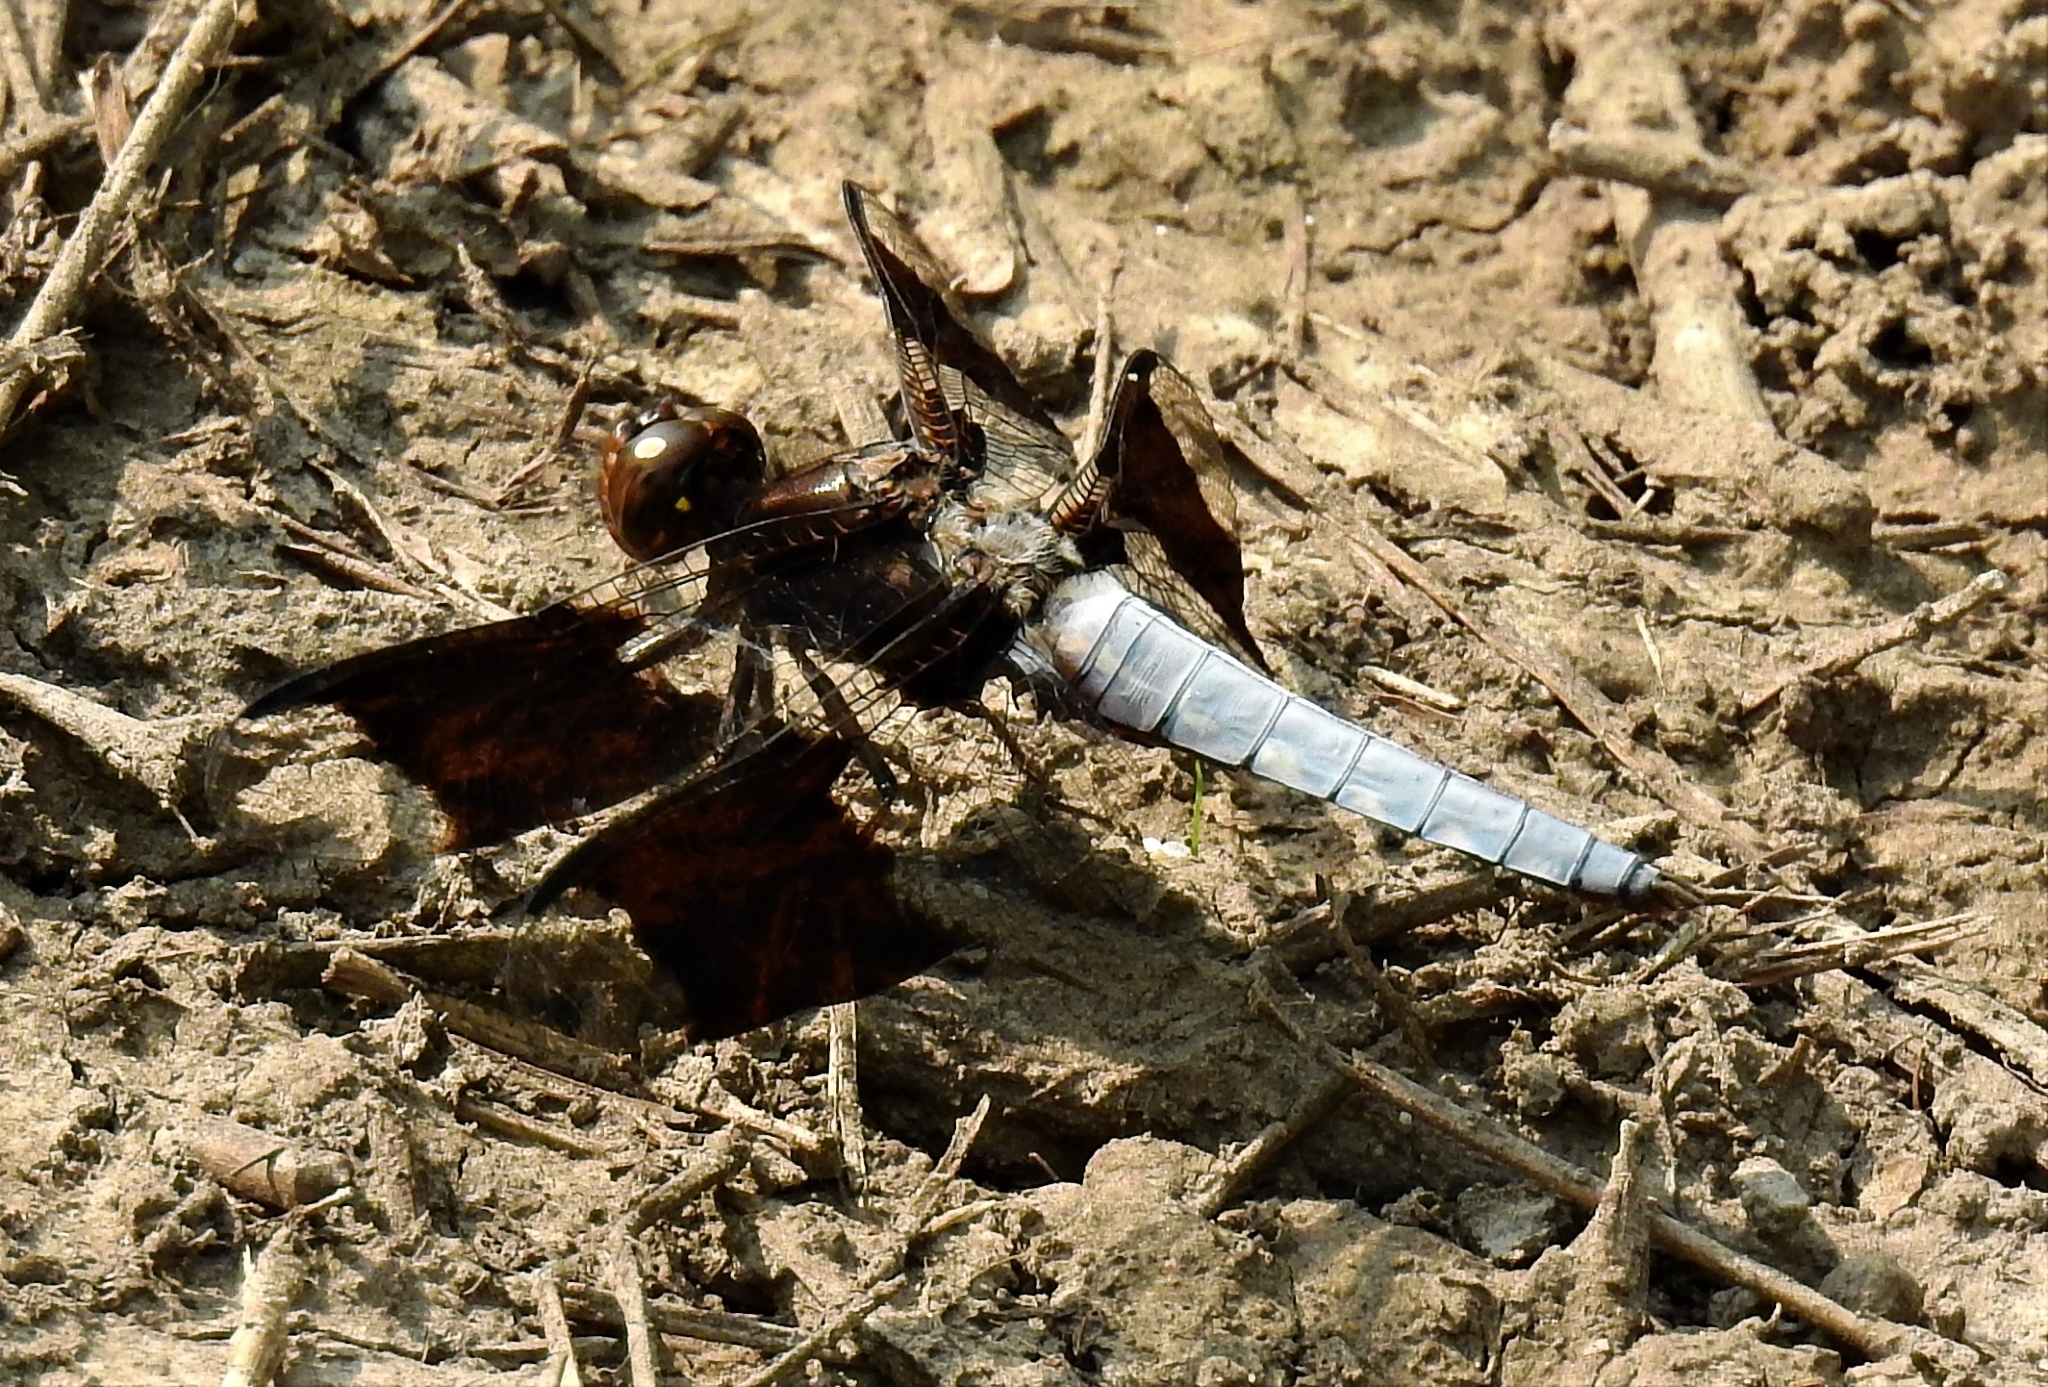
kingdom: Animalia
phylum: Arthropoda
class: Insecta
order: Odonata
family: Libellulidae
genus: Plathemis
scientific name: Plathemis lydia
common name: Common whitetail
